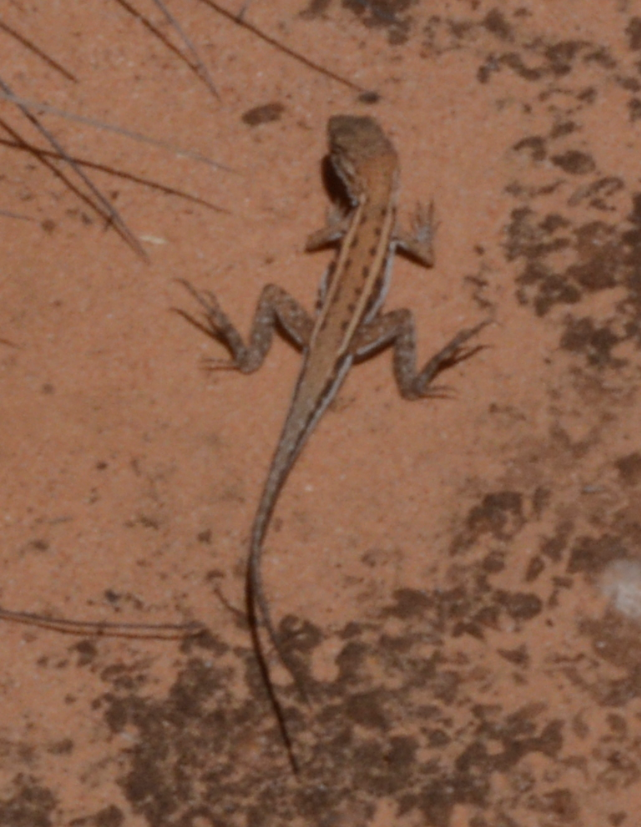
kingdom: Animalia
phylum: Chordata
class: Squamata
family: Agamidae
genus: Ctenophorus
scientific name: Ctenophorus
